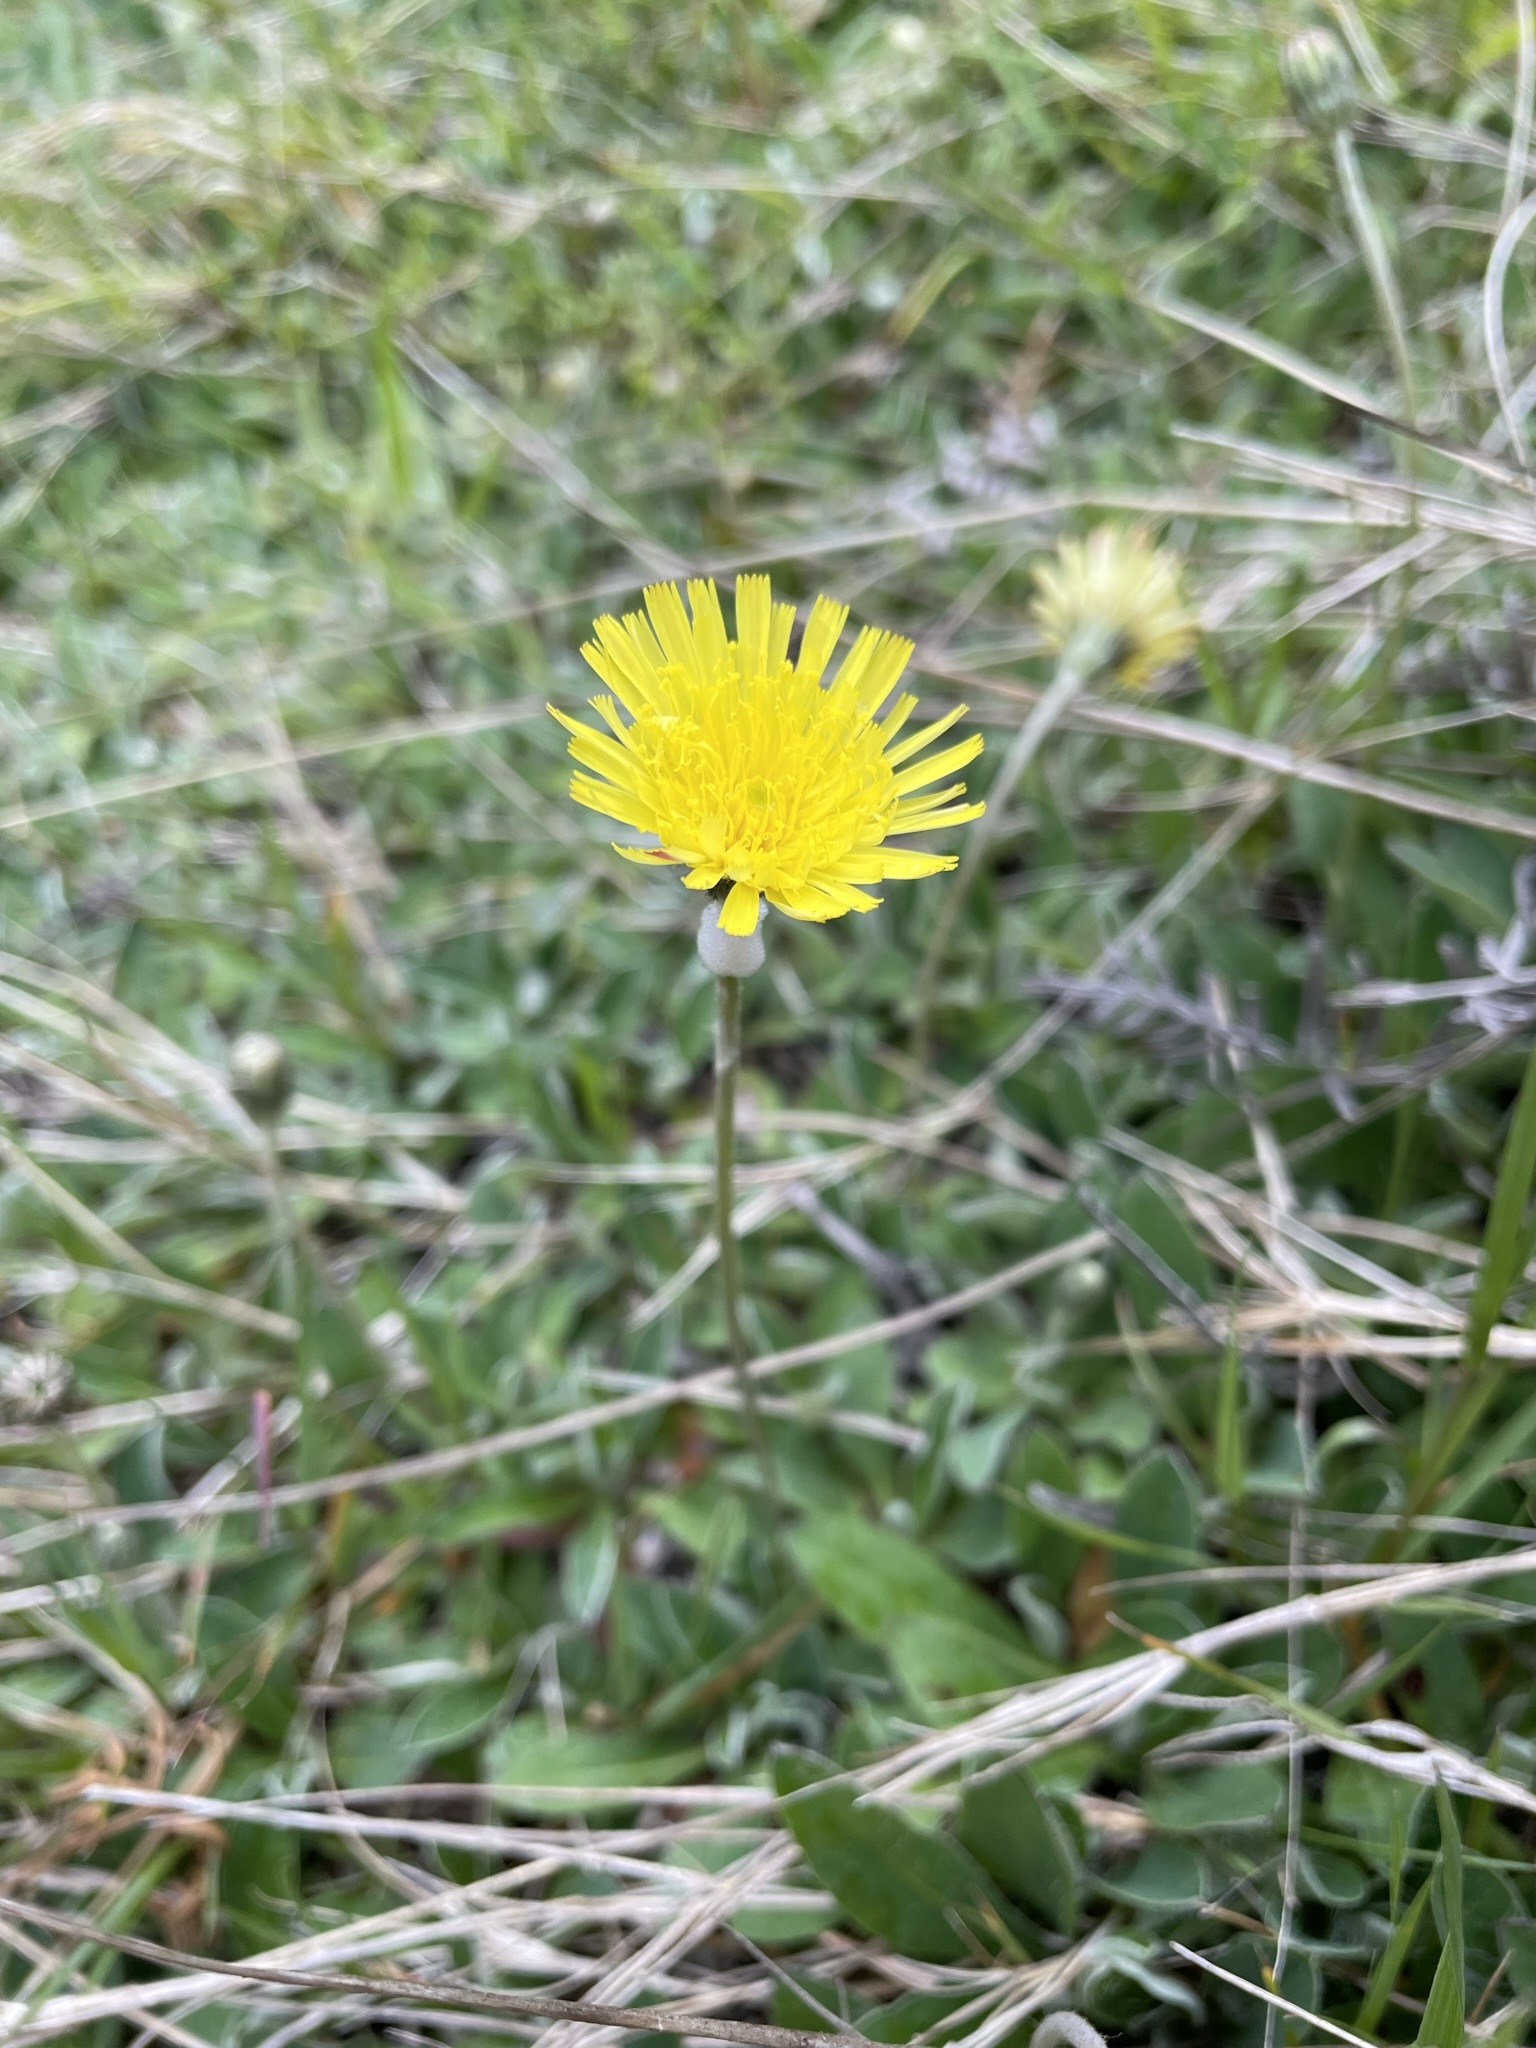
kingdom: Plantae
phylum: Tracheophyta
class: Magnoliopsida
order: Asterales
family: Asteraceae
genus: Pilosella
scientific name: Pilosella officinarum
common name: Mouse-ear hawkweed
